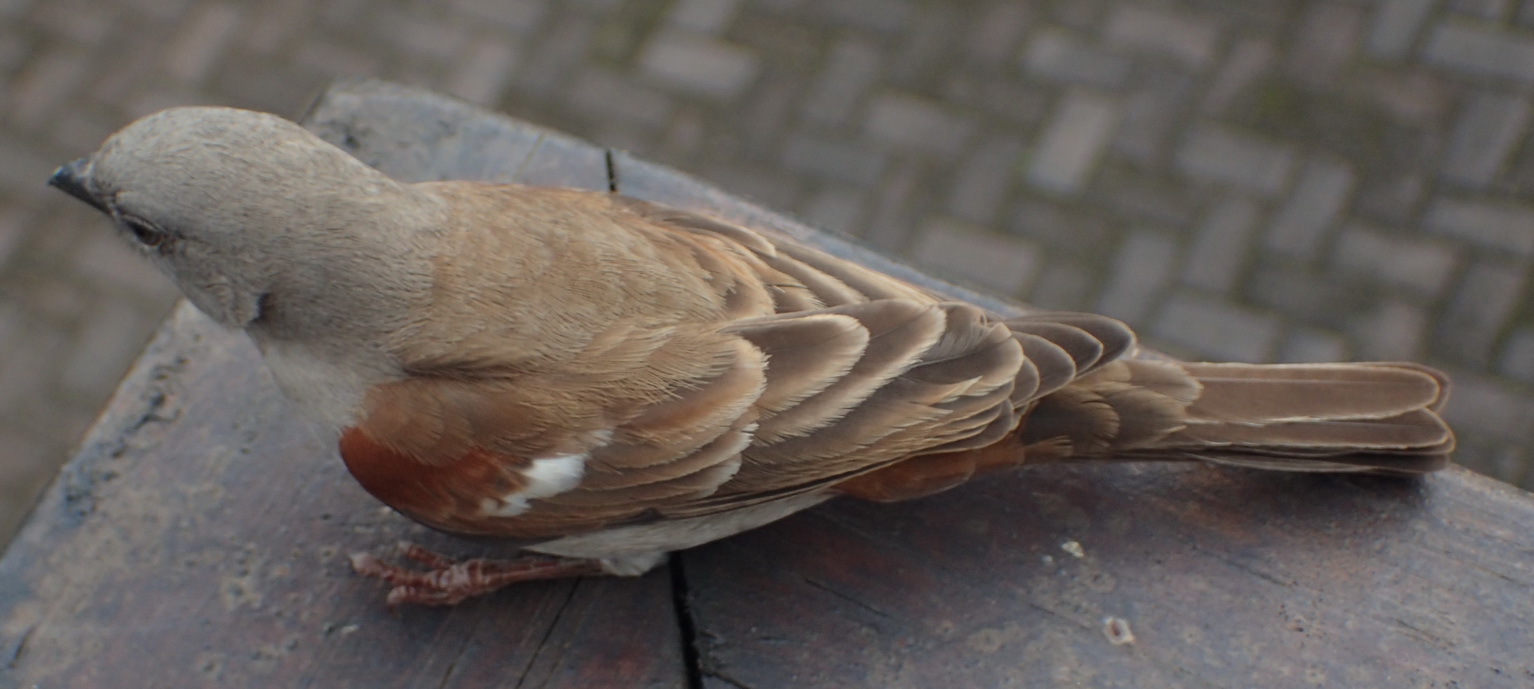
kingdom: Animalia
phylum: Chordata
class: Aves
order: Passeriformes
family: Passeridae
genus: Passer
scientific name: Passer diffusus
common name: Southern grey-headed sparrow
